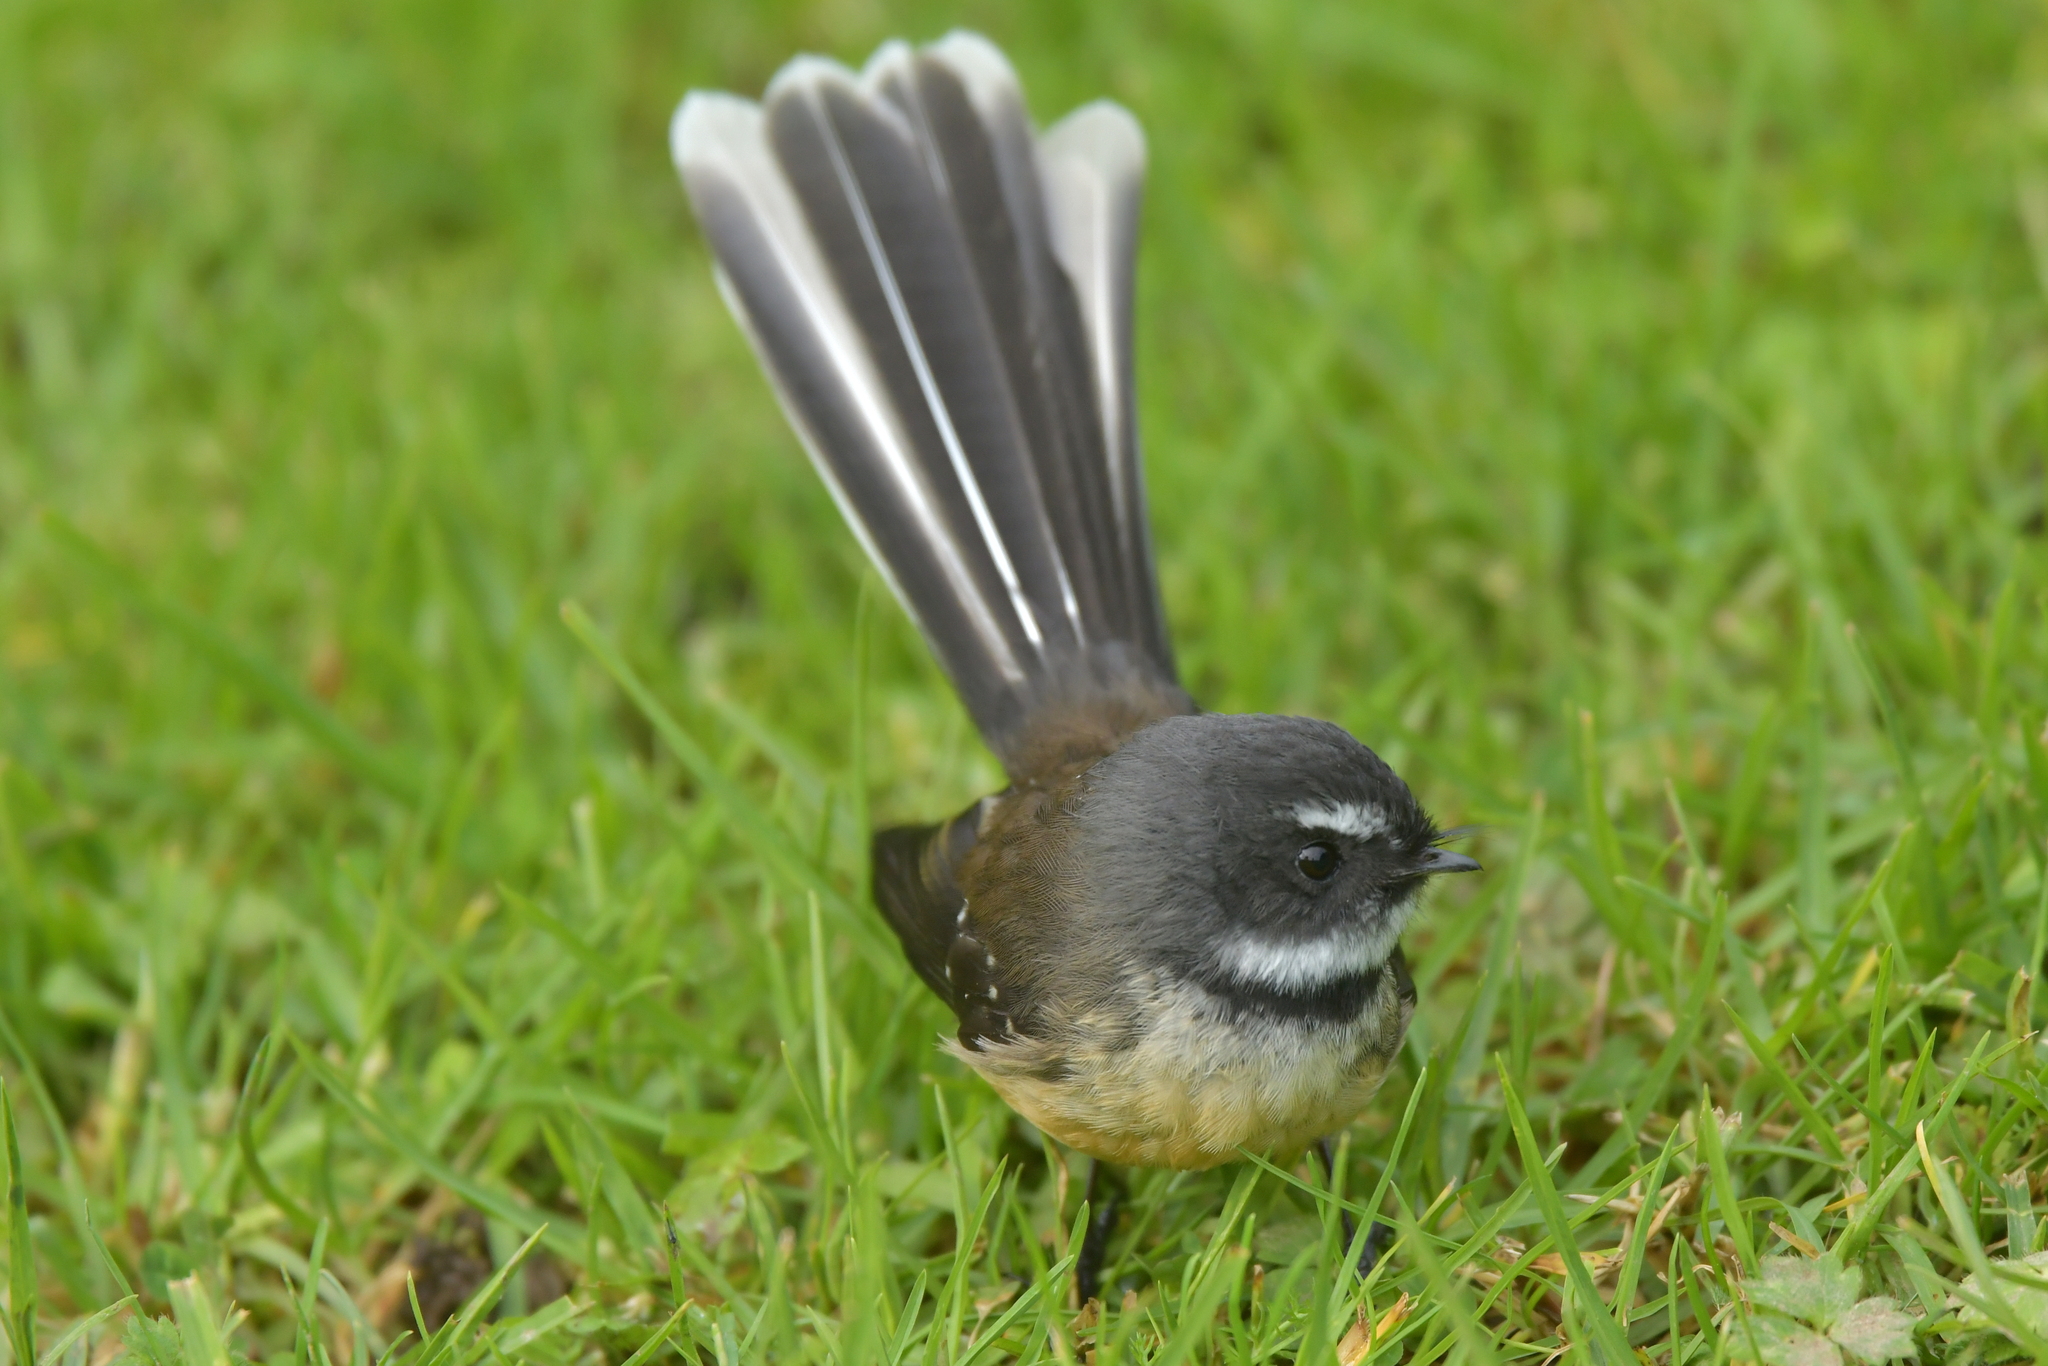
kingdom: Animalia
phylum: Chordata
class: Aves
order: Passeriformes
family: Rhipiduridae
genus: Rhipidura
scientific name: Rhipidura fuliginosa
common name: New zealand fantail
